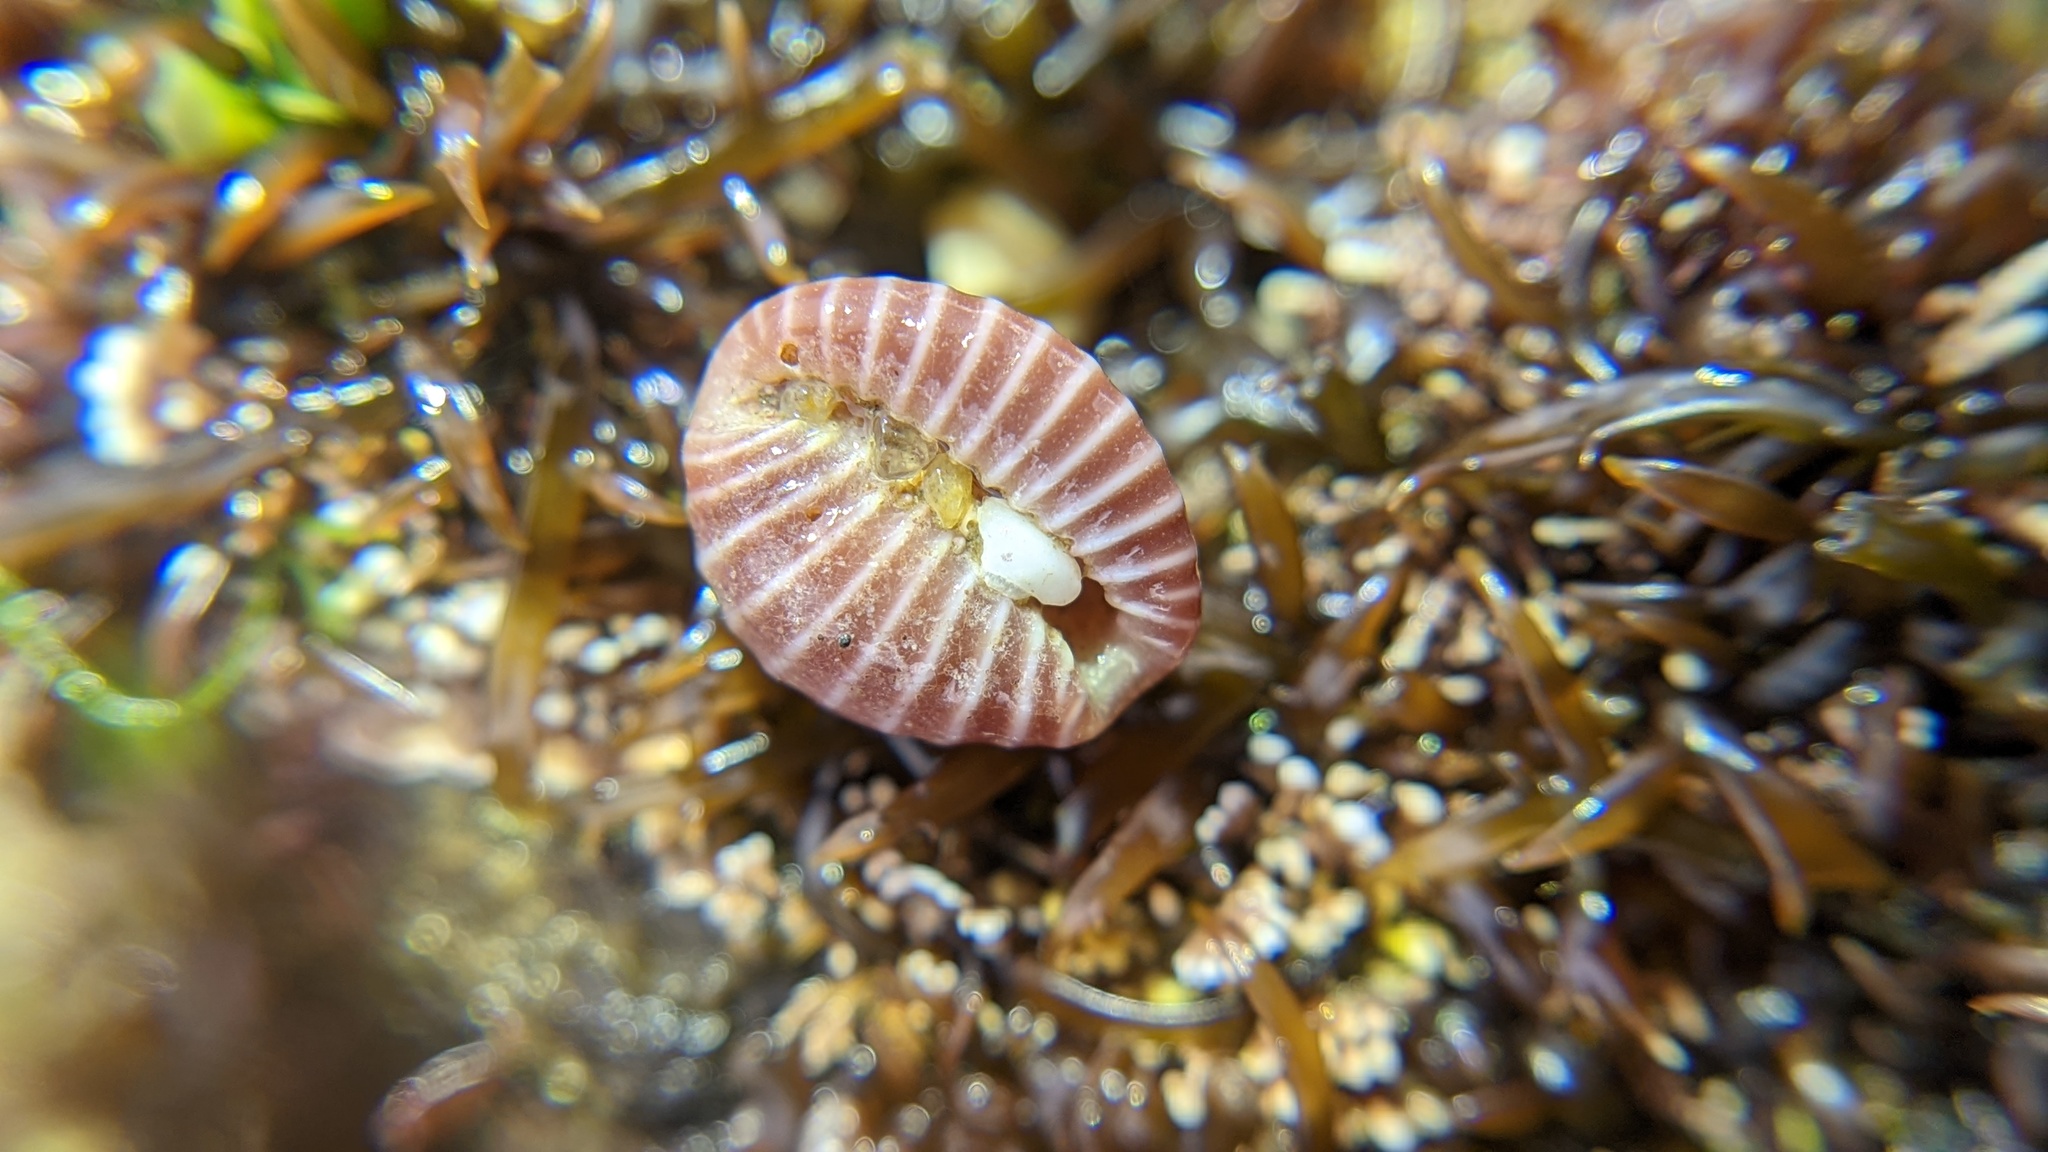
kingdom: Animalia
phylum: Mollusca
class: Gastropoda
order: Littorinimorpha
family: Triviidae
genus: Pseudopusula
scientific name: Pseudopusula californiana
